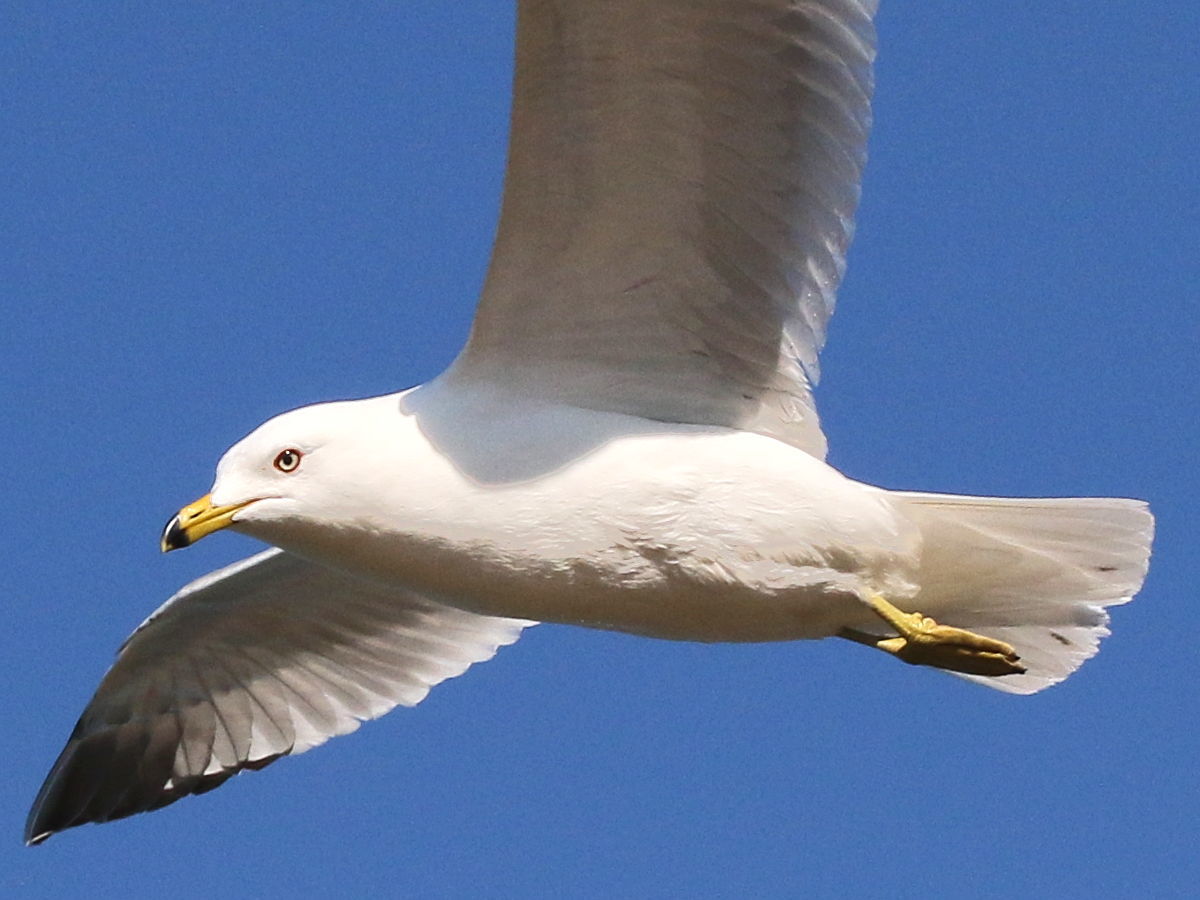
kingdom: Animalia
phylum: Chordata
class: Aves
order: Charadriiformes
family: Laridae
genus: Larus
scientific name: Larus delawarensis
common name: Ring-billed gull
